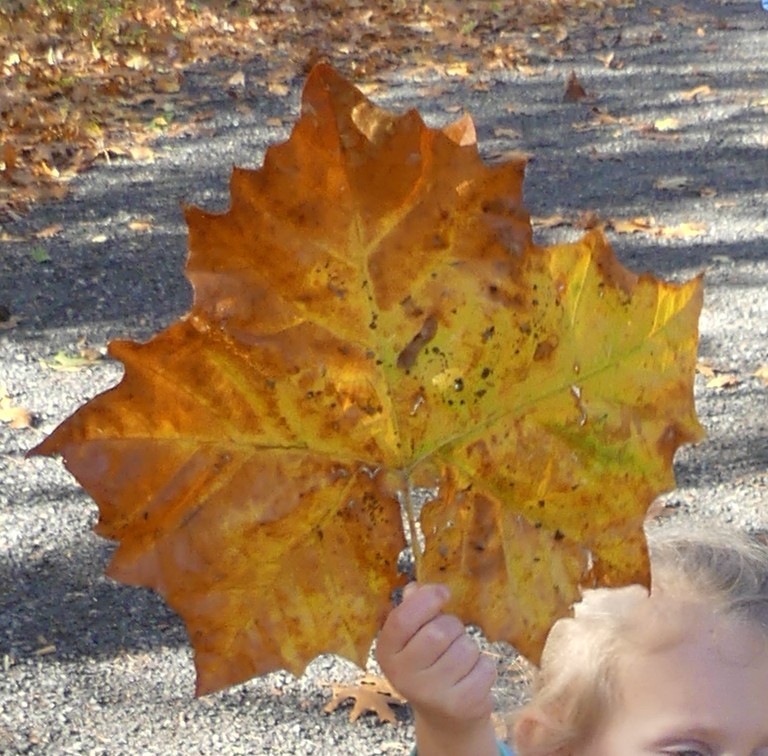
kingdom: Plantae
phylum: Tracheophyta
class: Magnoliopsida
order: Proteales
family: Platanaceae
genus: Platanus
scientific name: Platanus occidentalis
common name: American sycamore
